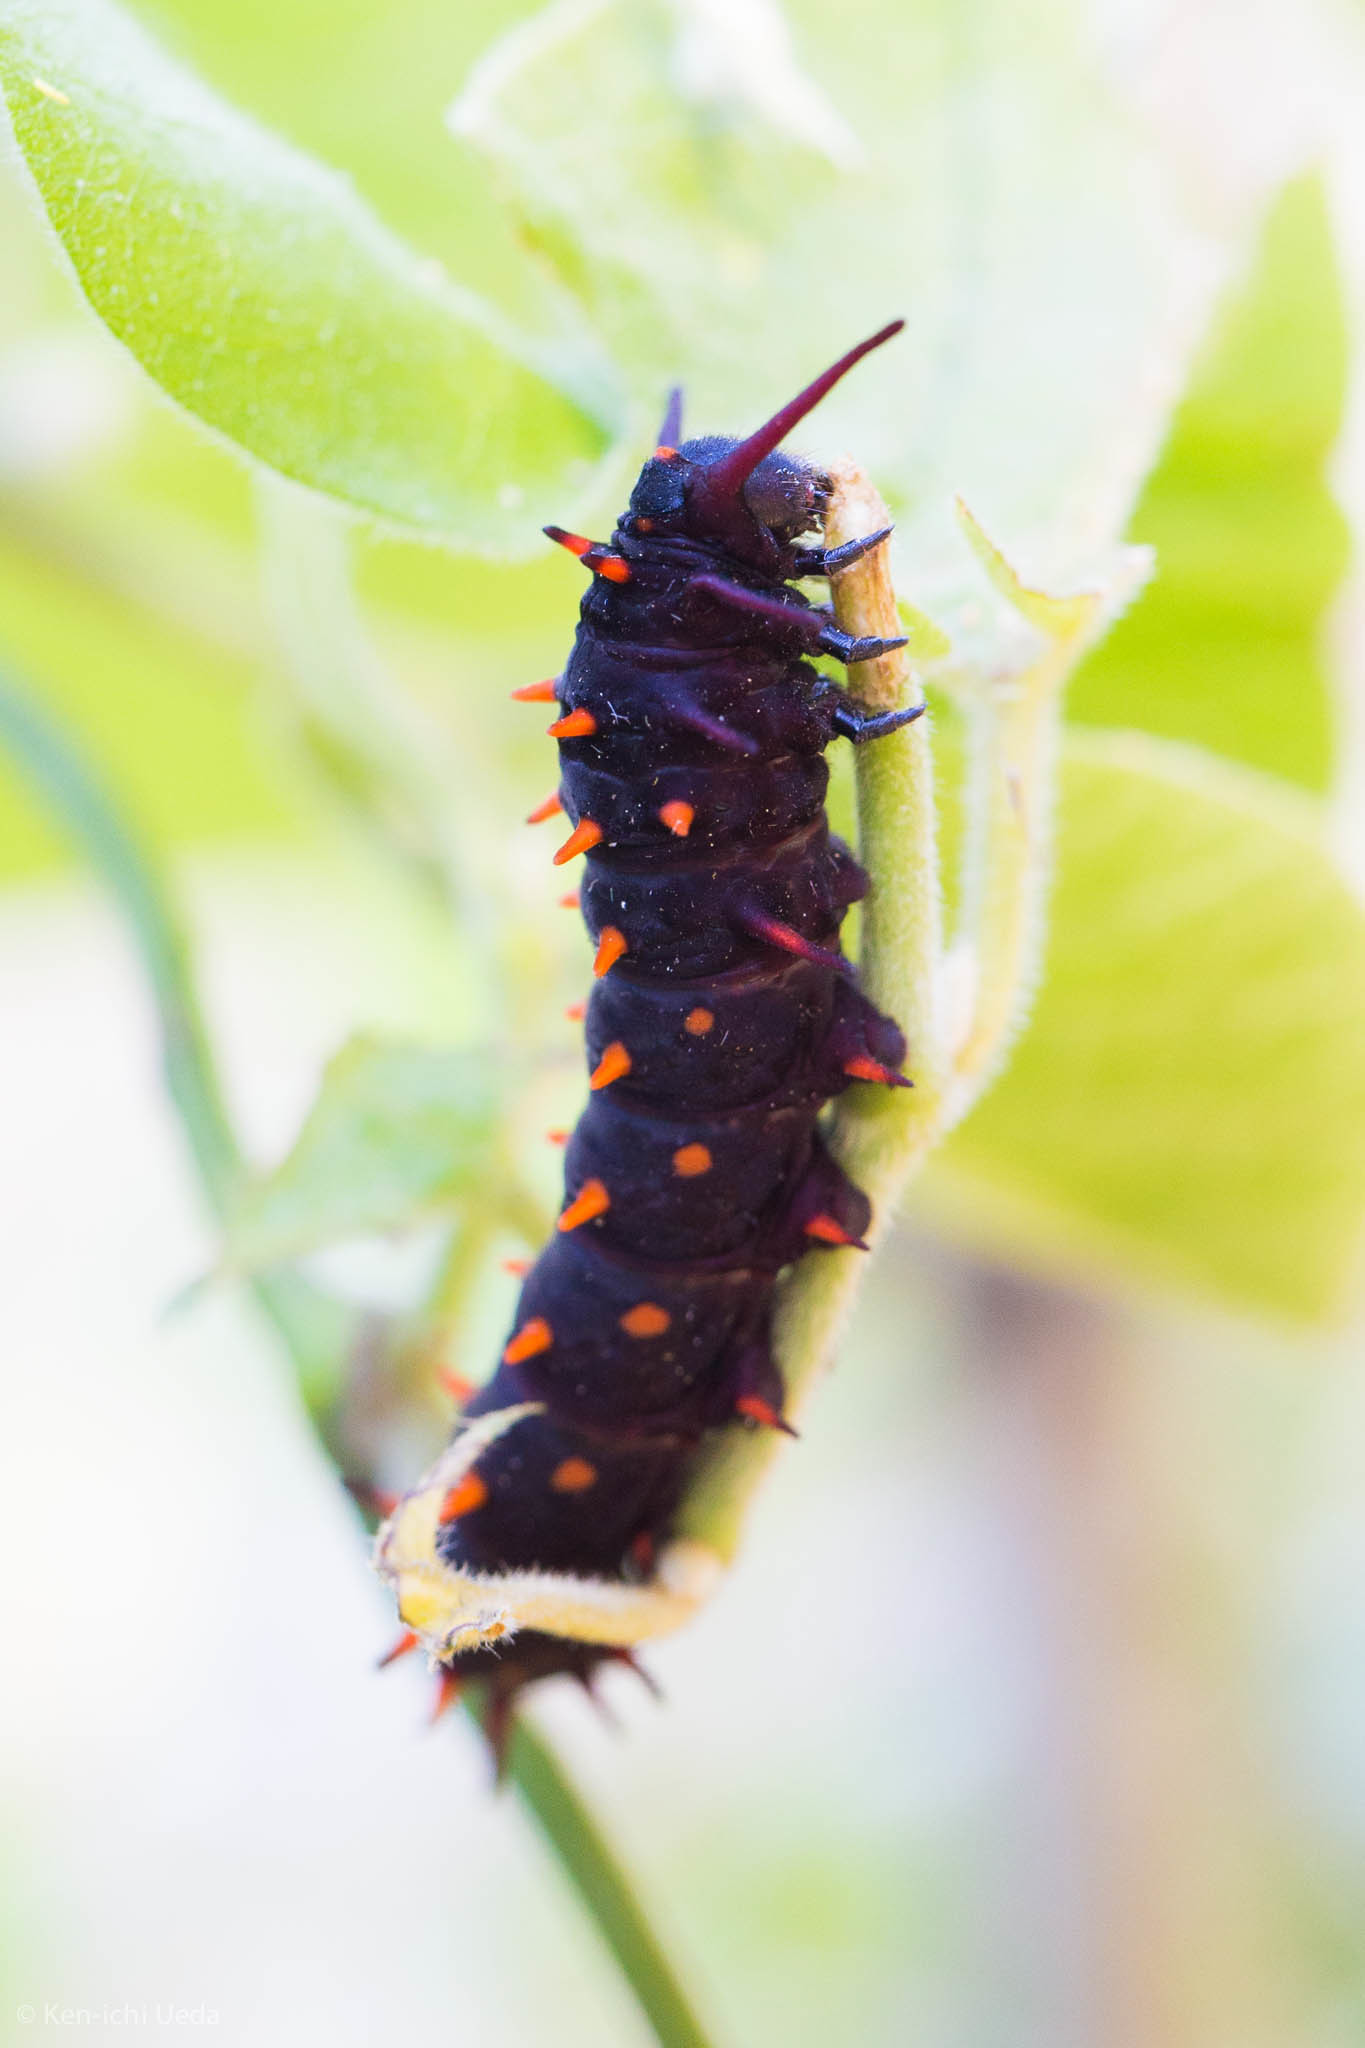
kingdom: Animalia
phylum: Arthropoda
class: Insecta
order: Lepidoptera
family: Papilionidae
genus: Battus
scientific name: Battus philenor
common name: Pipevine swallowtail
